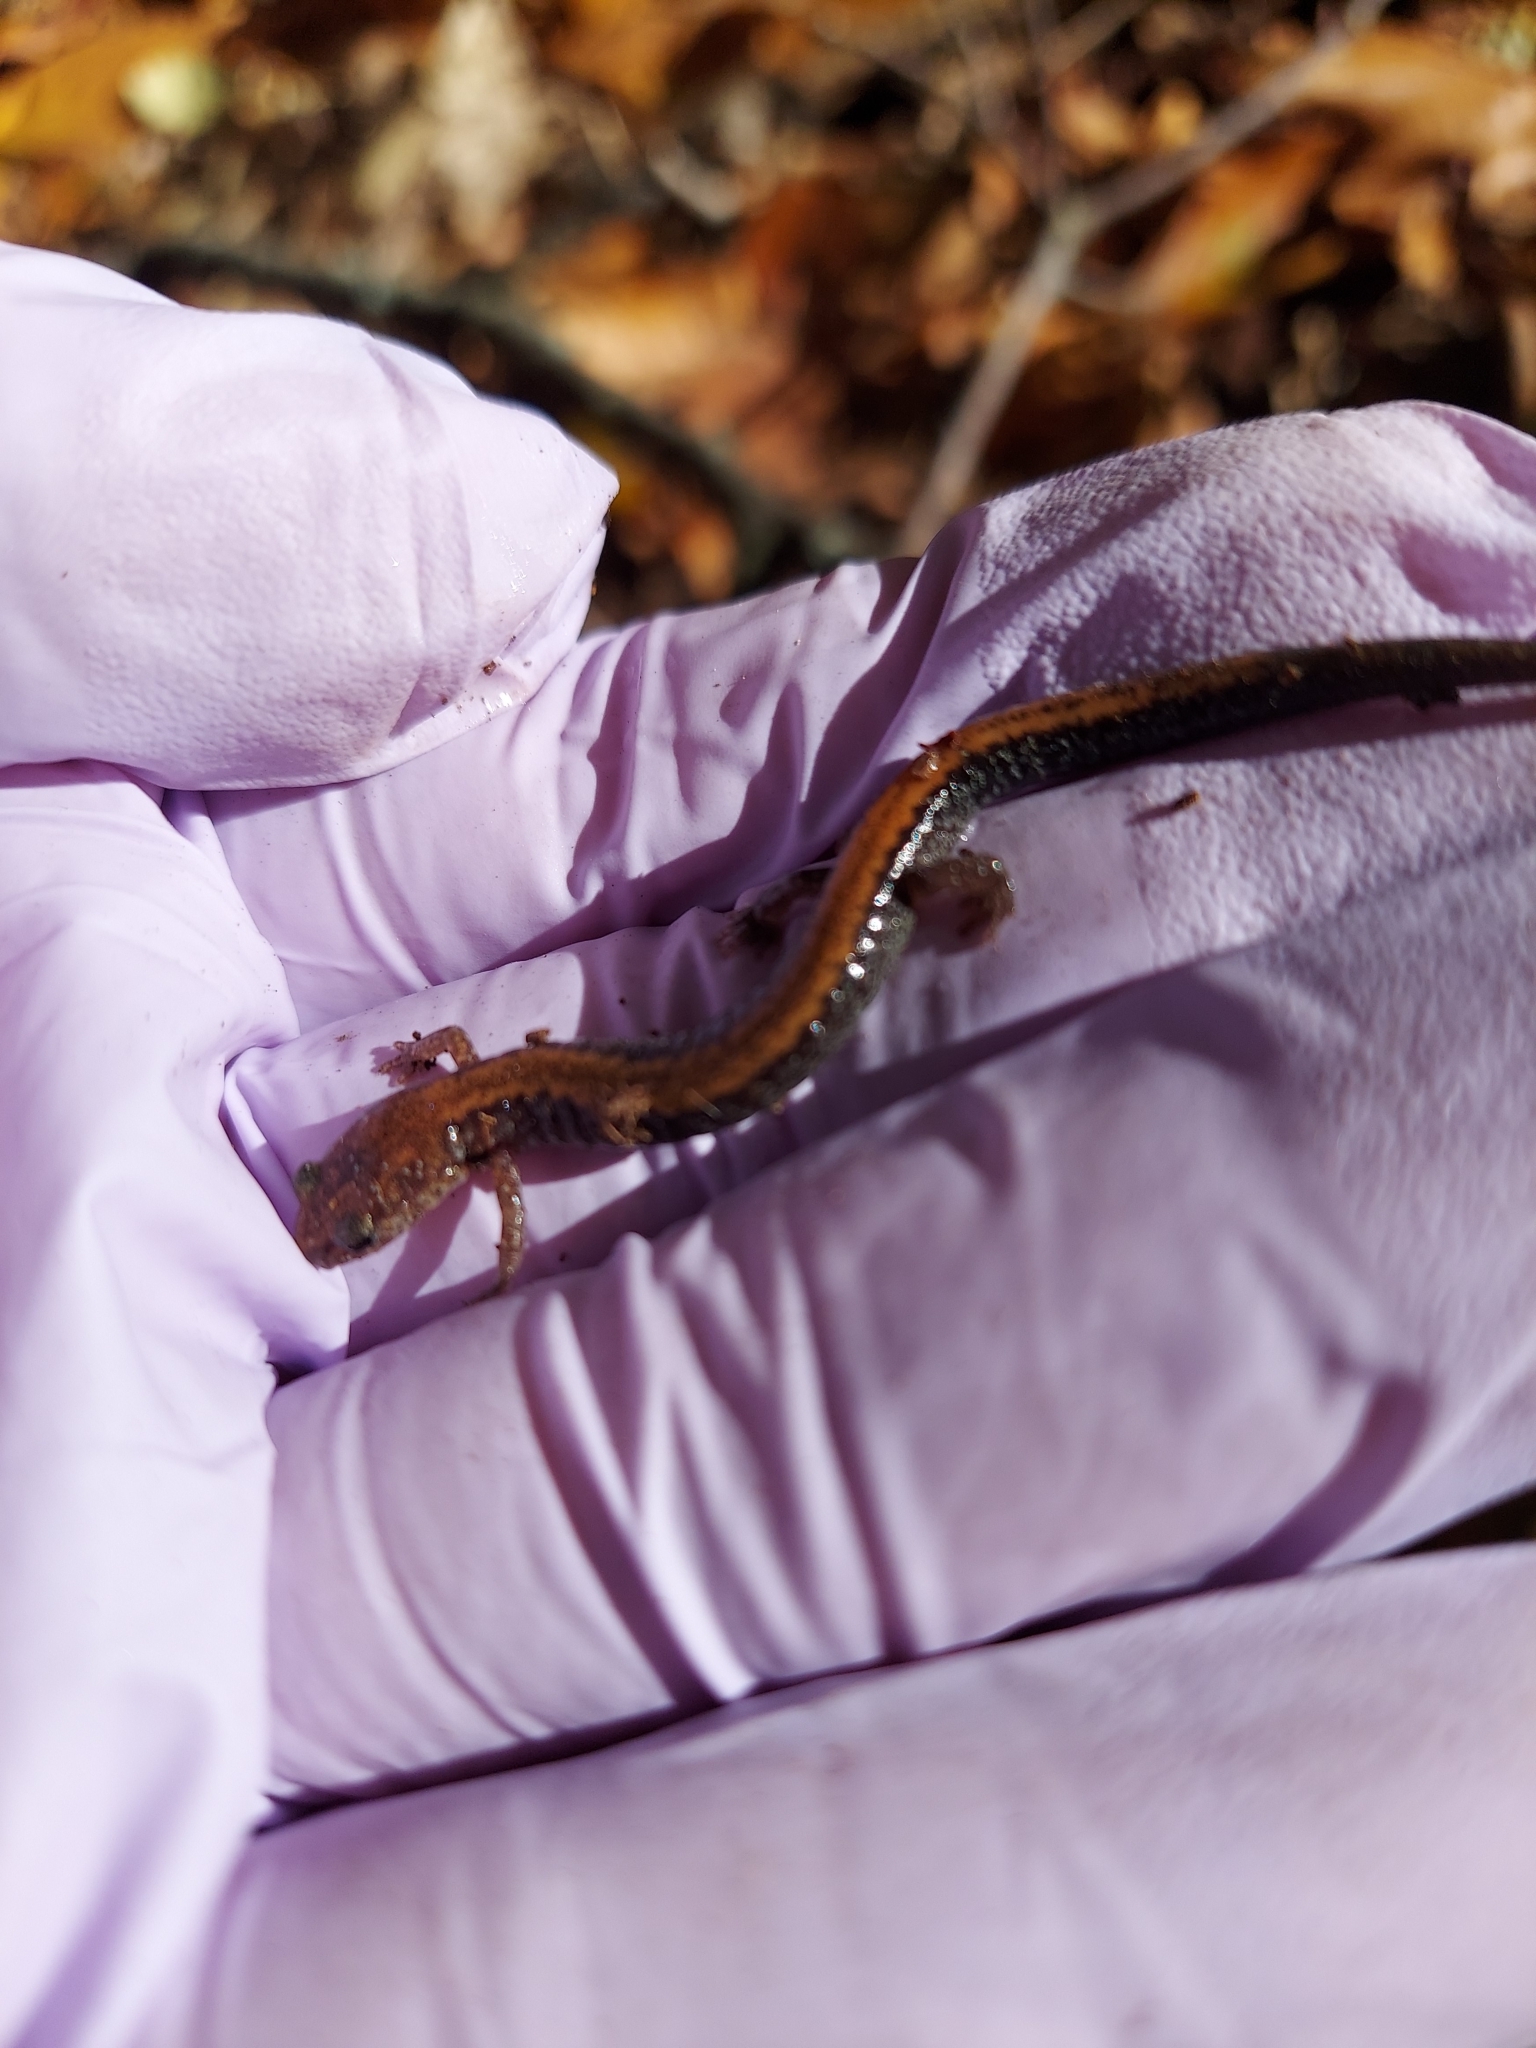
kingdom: Animalia
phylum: Chordata
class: Amphibia
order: Caudata
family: Plethodontidae
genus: Plethodon
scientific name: Plethodon cinereus
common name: Redback salamander
